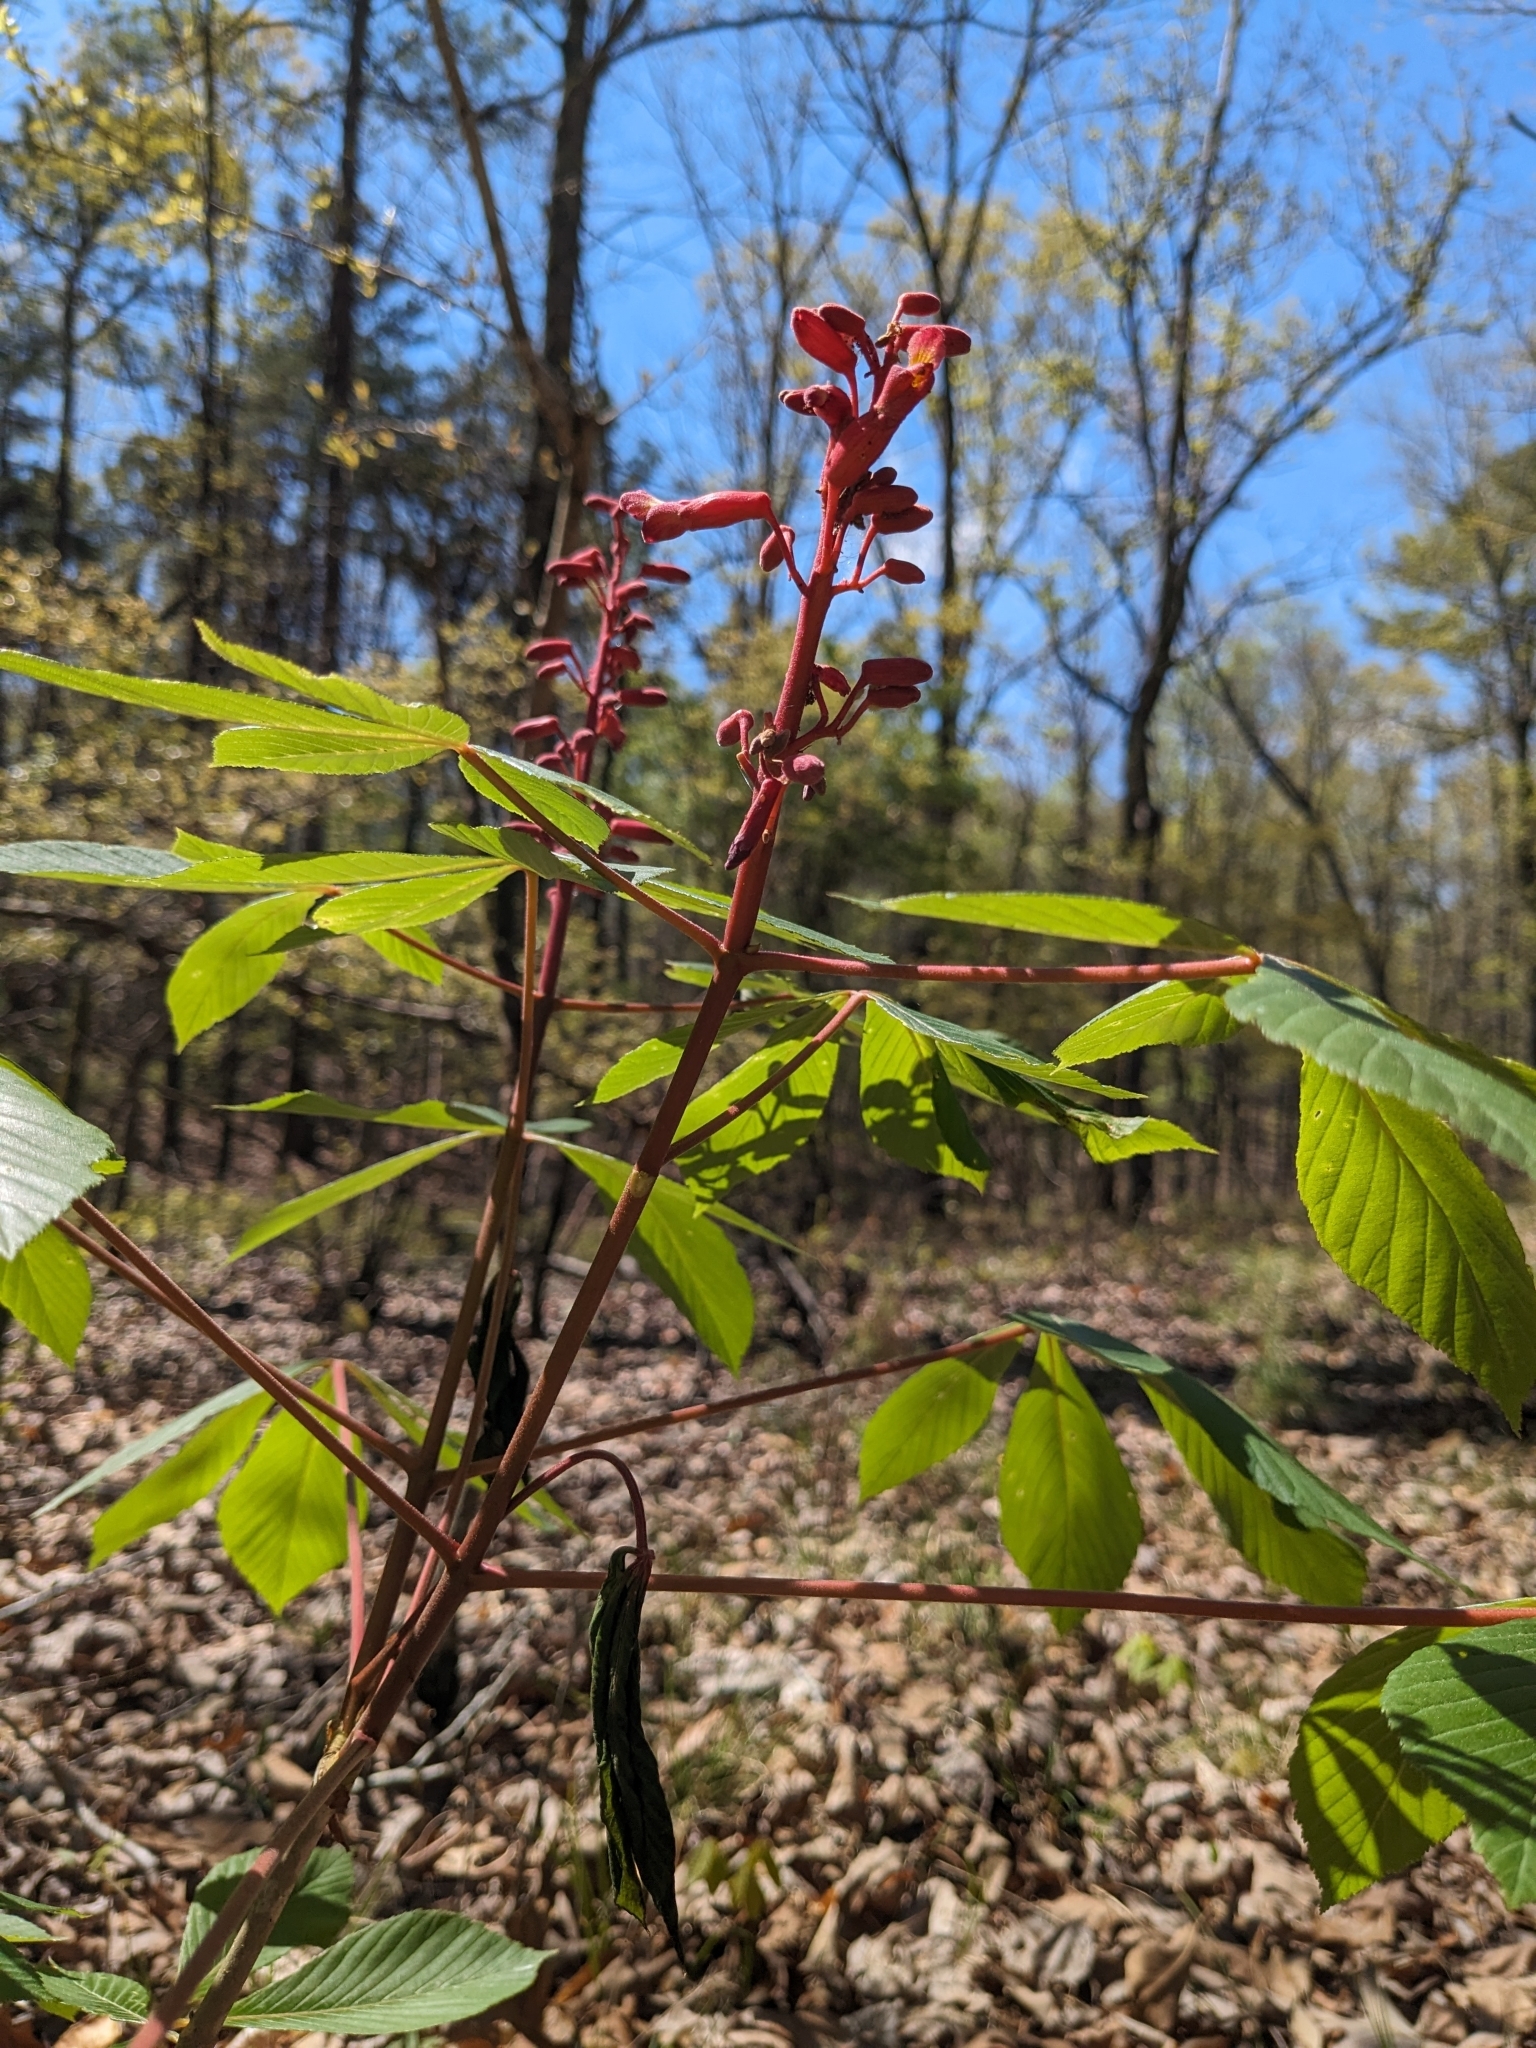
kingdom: Plantae
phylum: Tracheophyta
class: Magnoliopsida
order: Sapindales
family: Sapindaceae
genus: Aesculus
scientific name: Aesculus pavia
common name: Red buckeye
